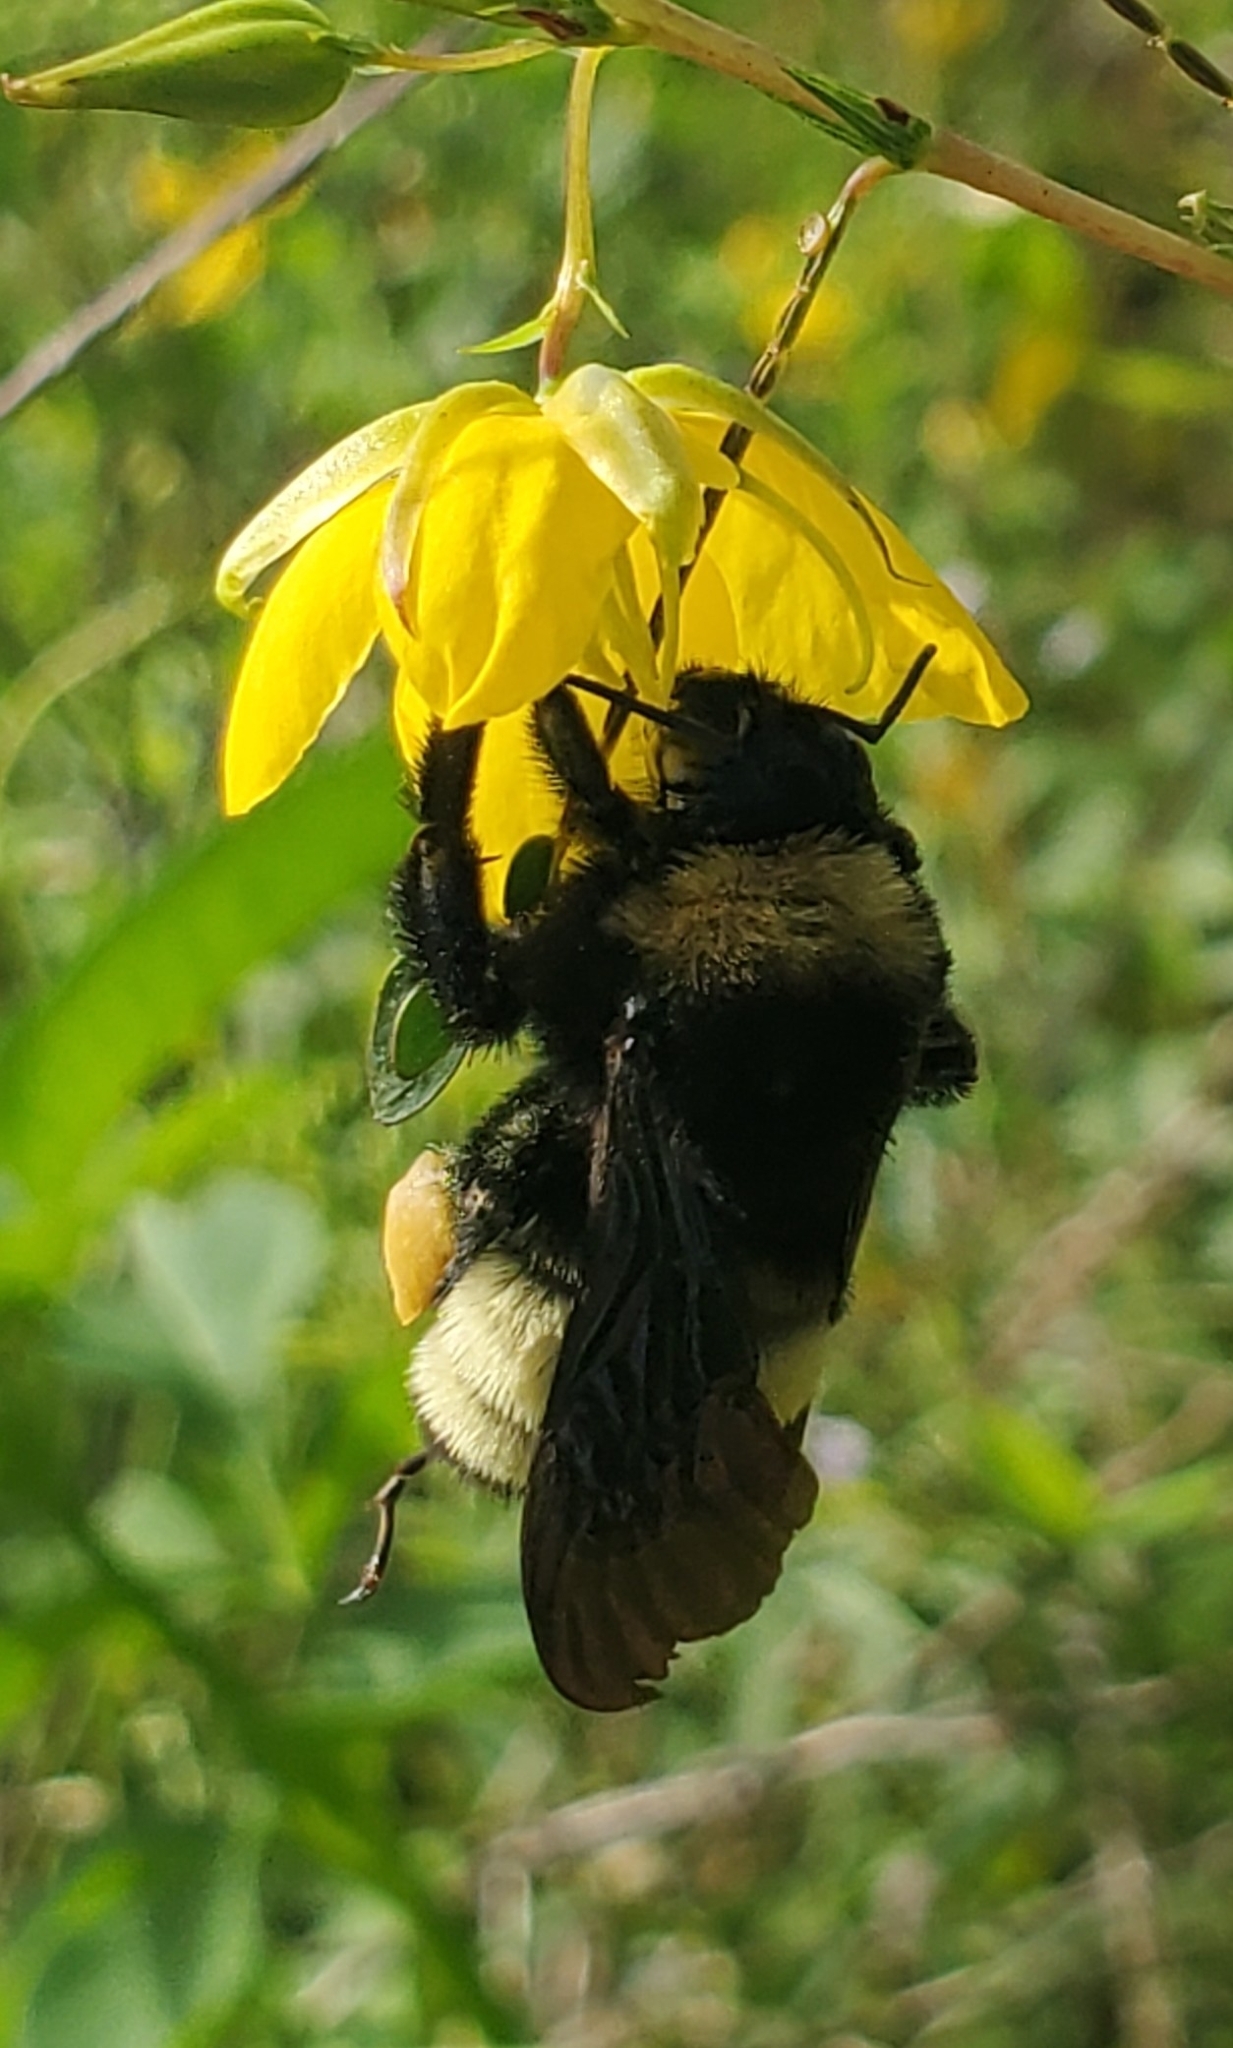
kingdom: Animalia
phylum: Arthropoda
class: Insecta
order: Hymenoptera
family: Apidae
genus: Bombus
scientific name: Bombus pensylvanicus
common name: Bumble bee
